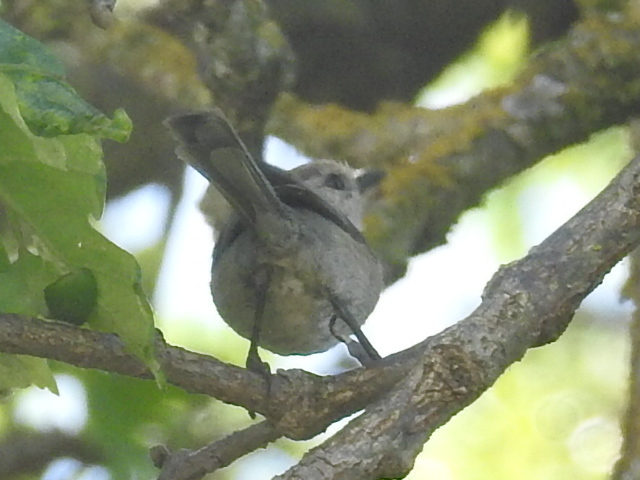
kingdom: Animalia
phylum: Chordata
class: Aves
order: Passeriformes
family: Aegithalidae
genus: Psaltriparus
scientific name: Psaltriparus minimus
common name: American bushtit
